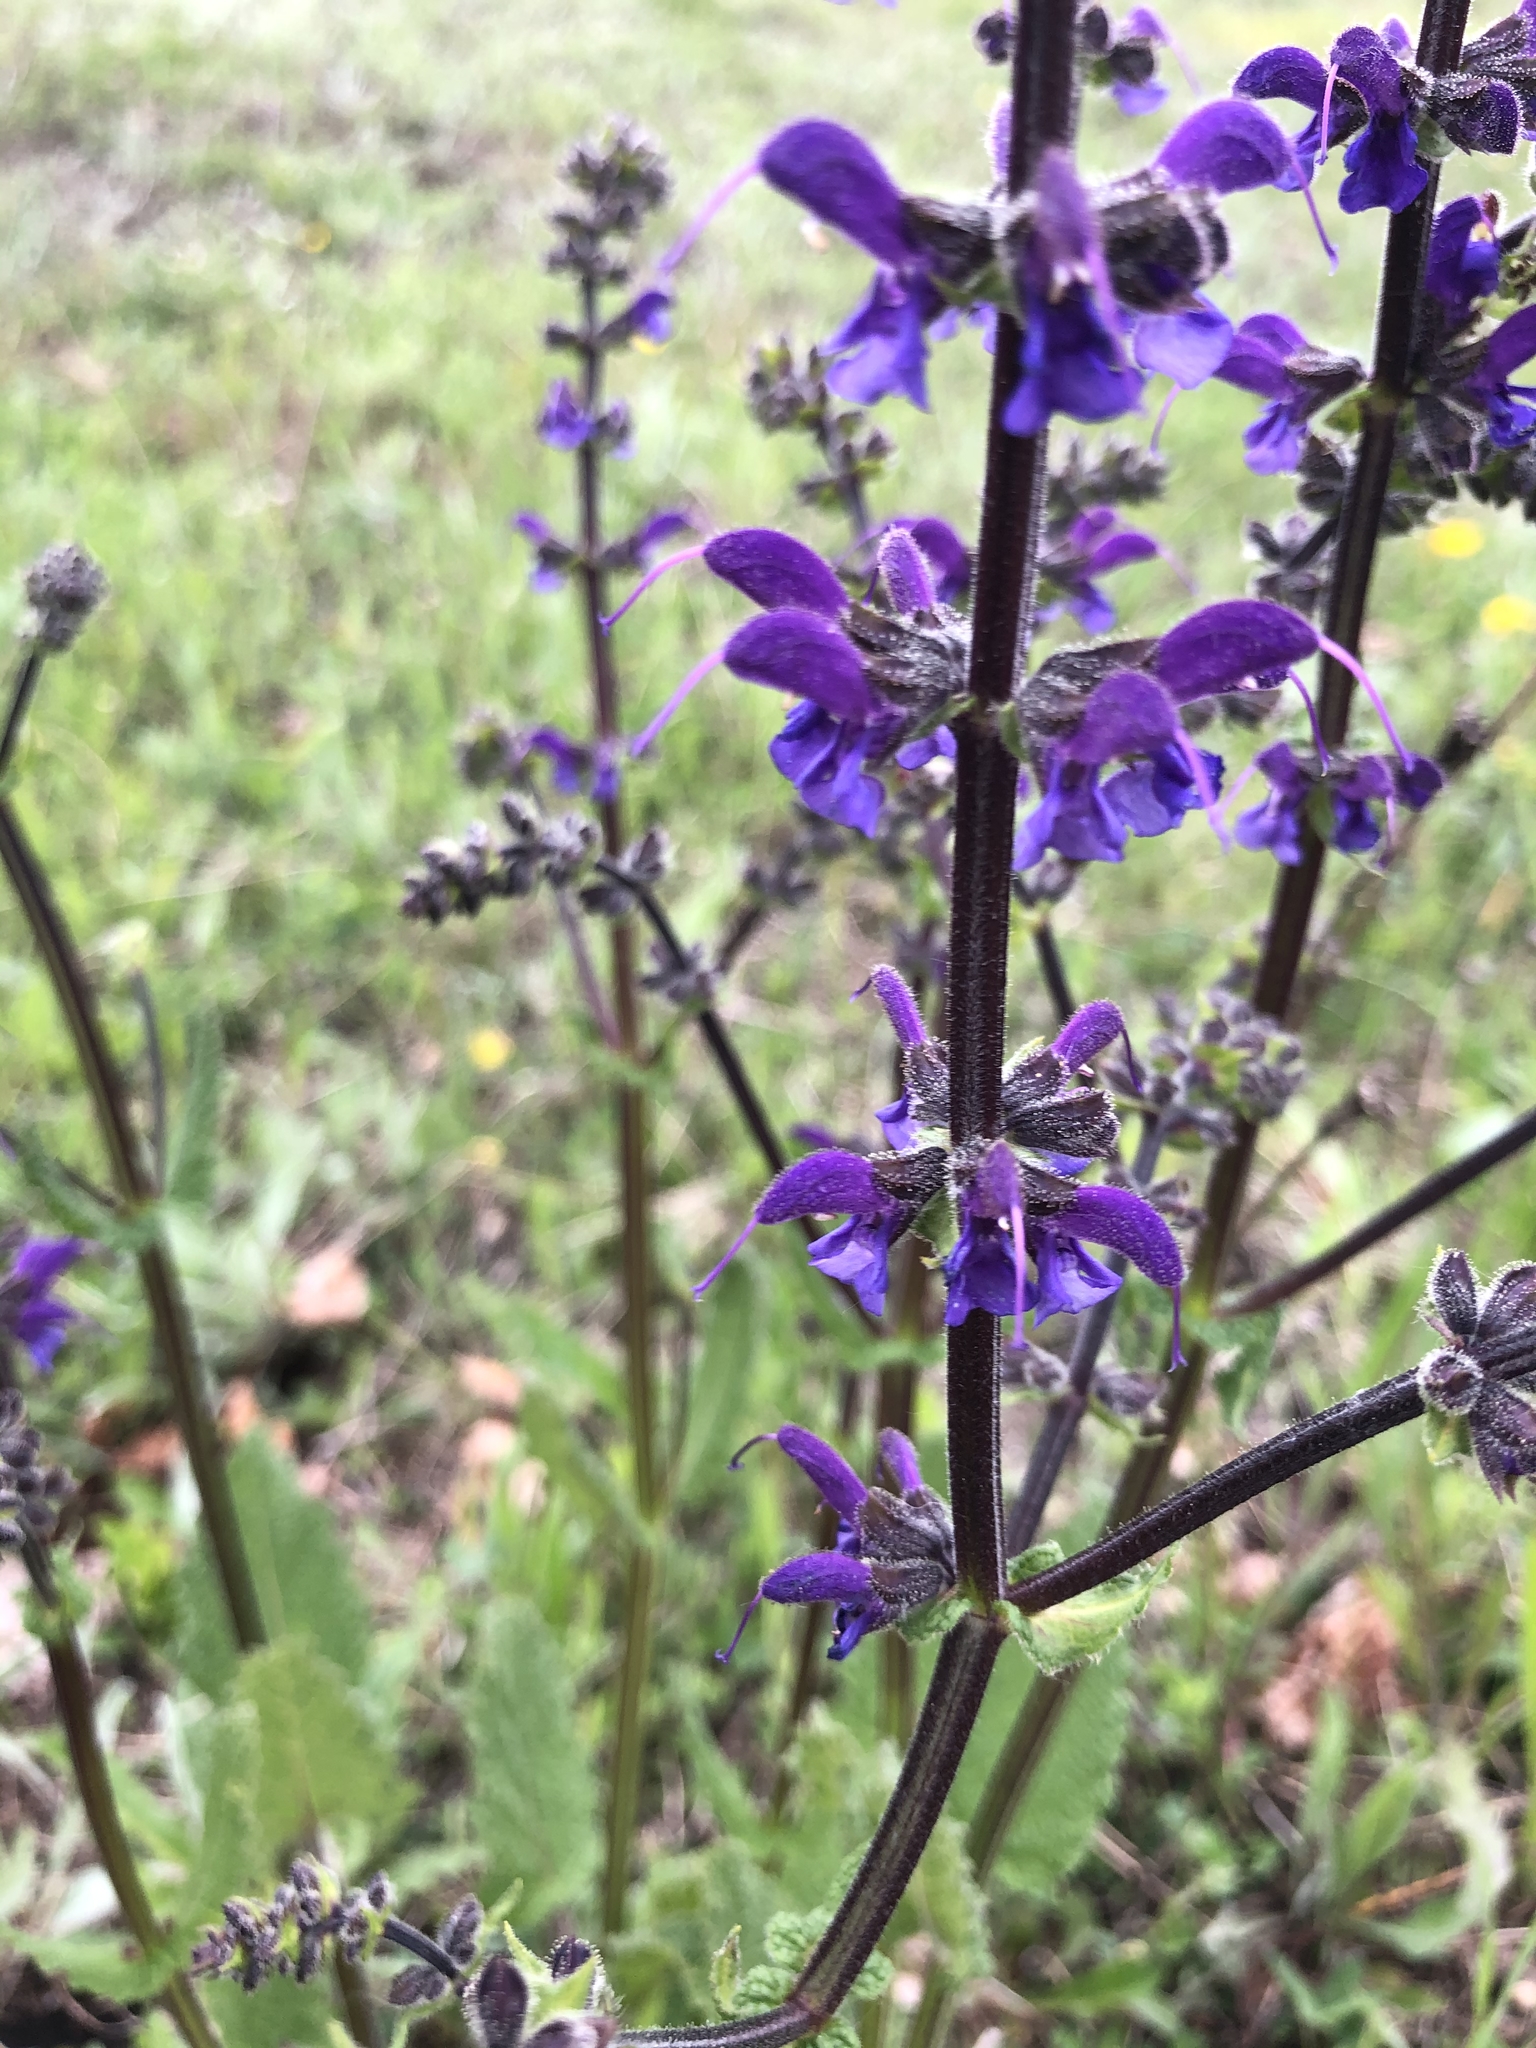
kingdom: Plantae
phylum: Tracheophyta
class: Magnoliopsida
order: Lamiales
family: Lamiaceae
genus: Salvia
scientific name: Salvia pratensis
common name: Meadow sage
